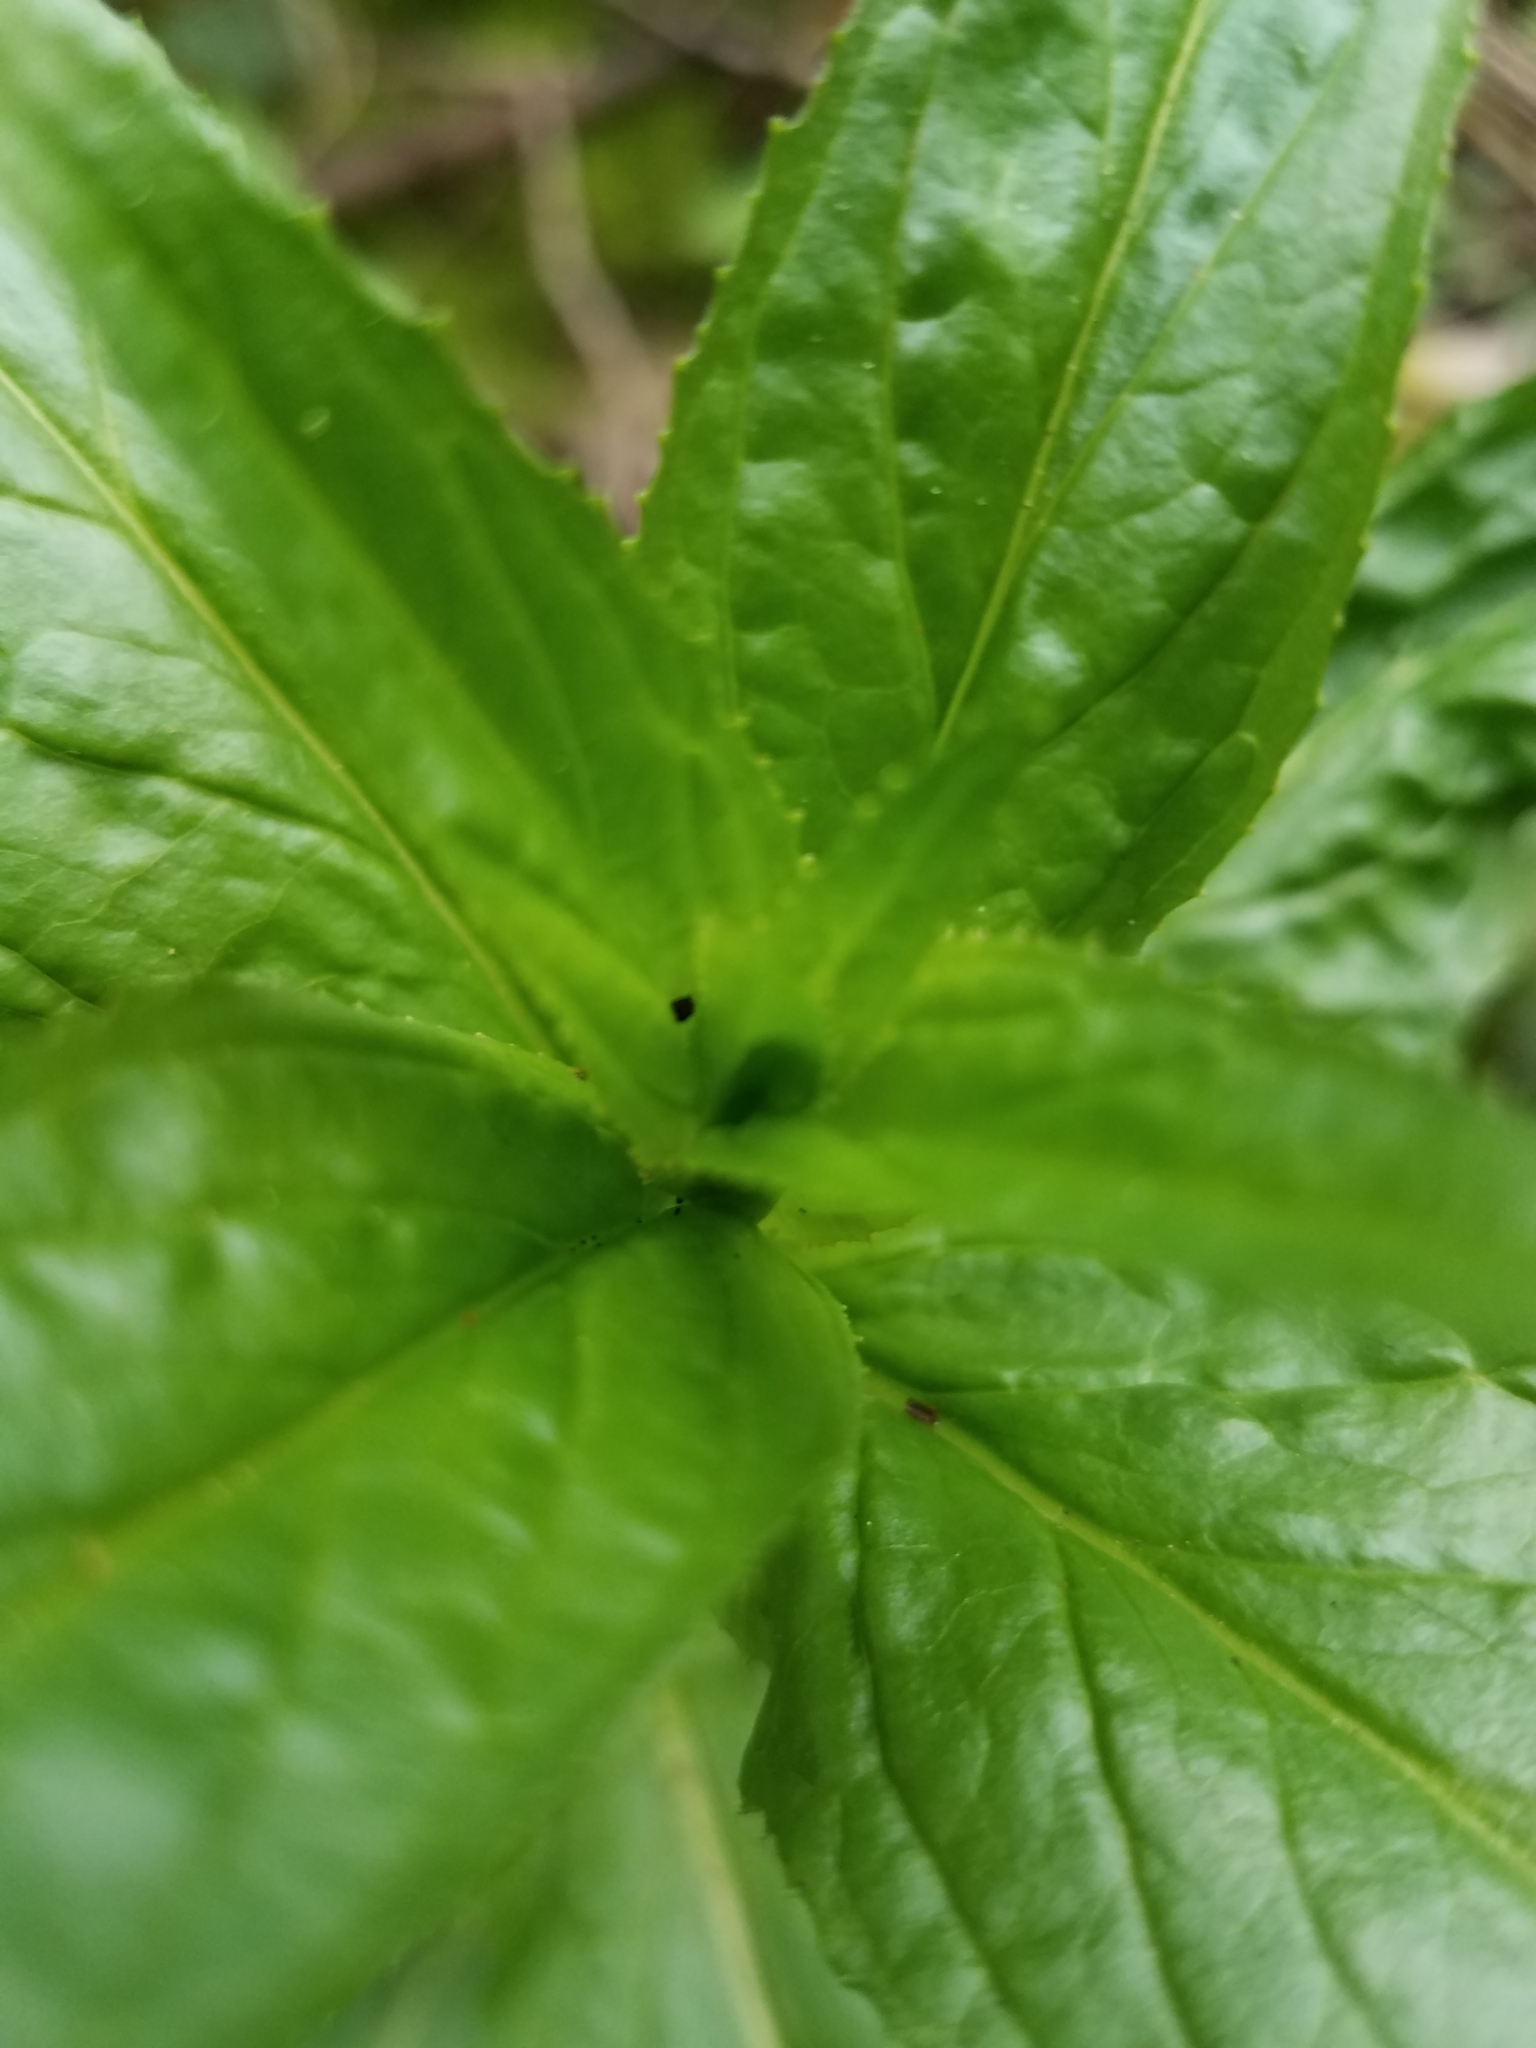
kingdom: Plantae
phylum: Tracheophyta
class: Magnoliopsida
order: Myrtales
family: Onagraceae
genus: Epilobium
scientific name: Epilobium ciliatum
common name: American willowherb
